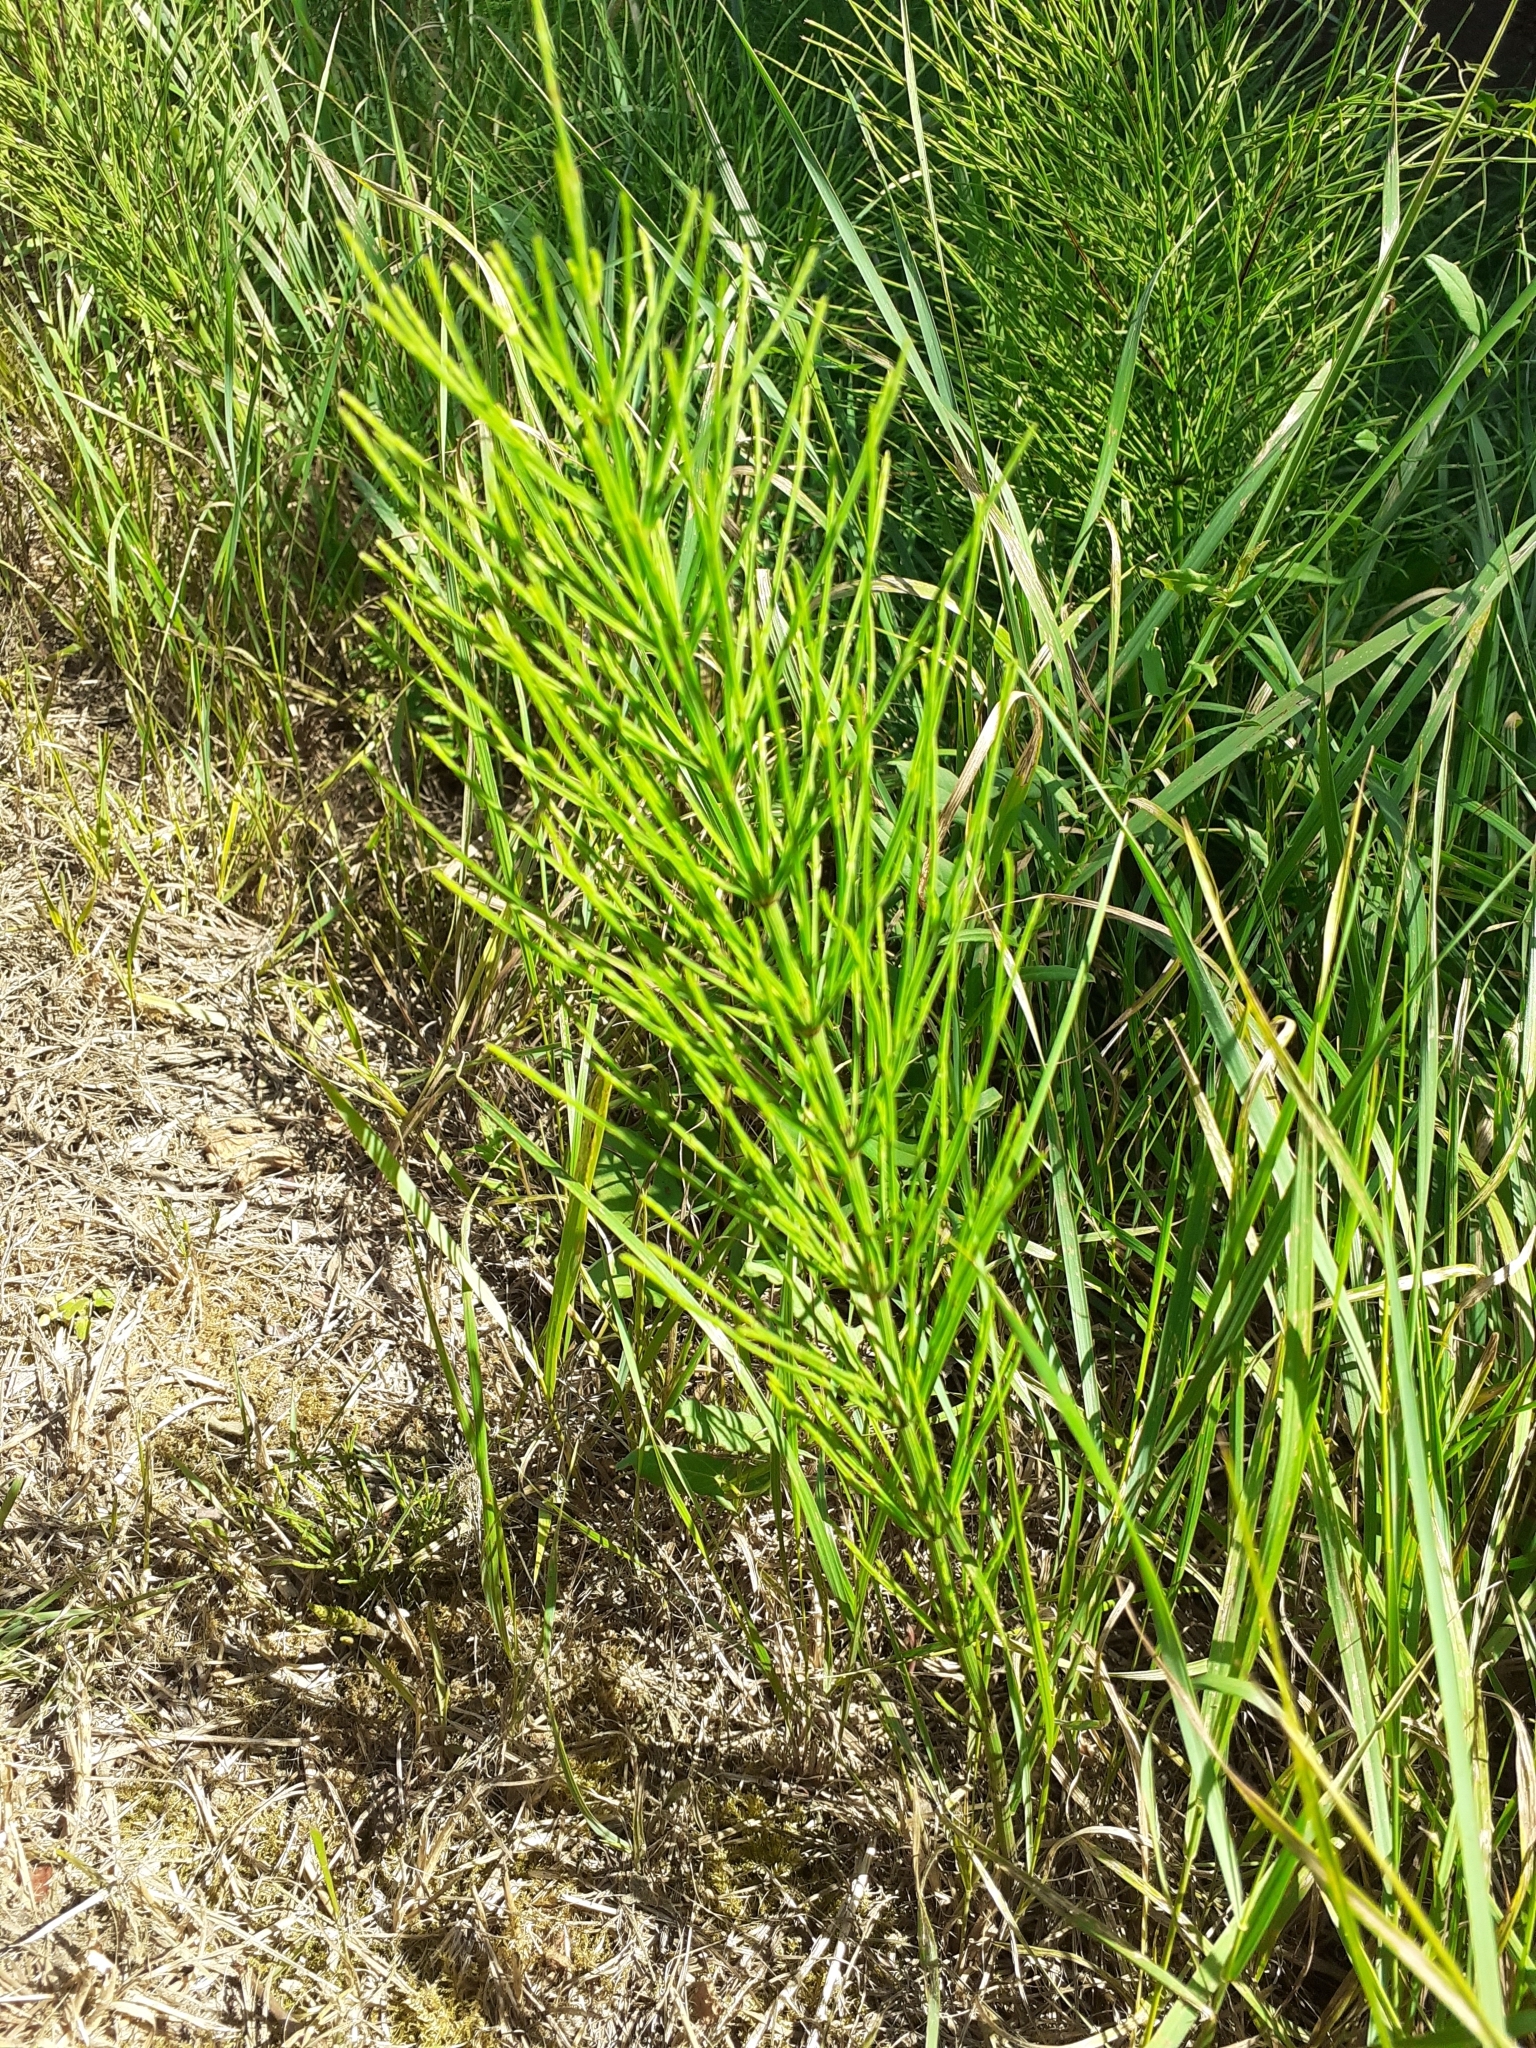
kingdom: Plantae
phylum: Tracheophyta
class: Polypodiopsida
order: Equisetales
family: Equisetaceae
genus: Equisetum
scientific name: Equisetum arvense
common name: Field horsetail
